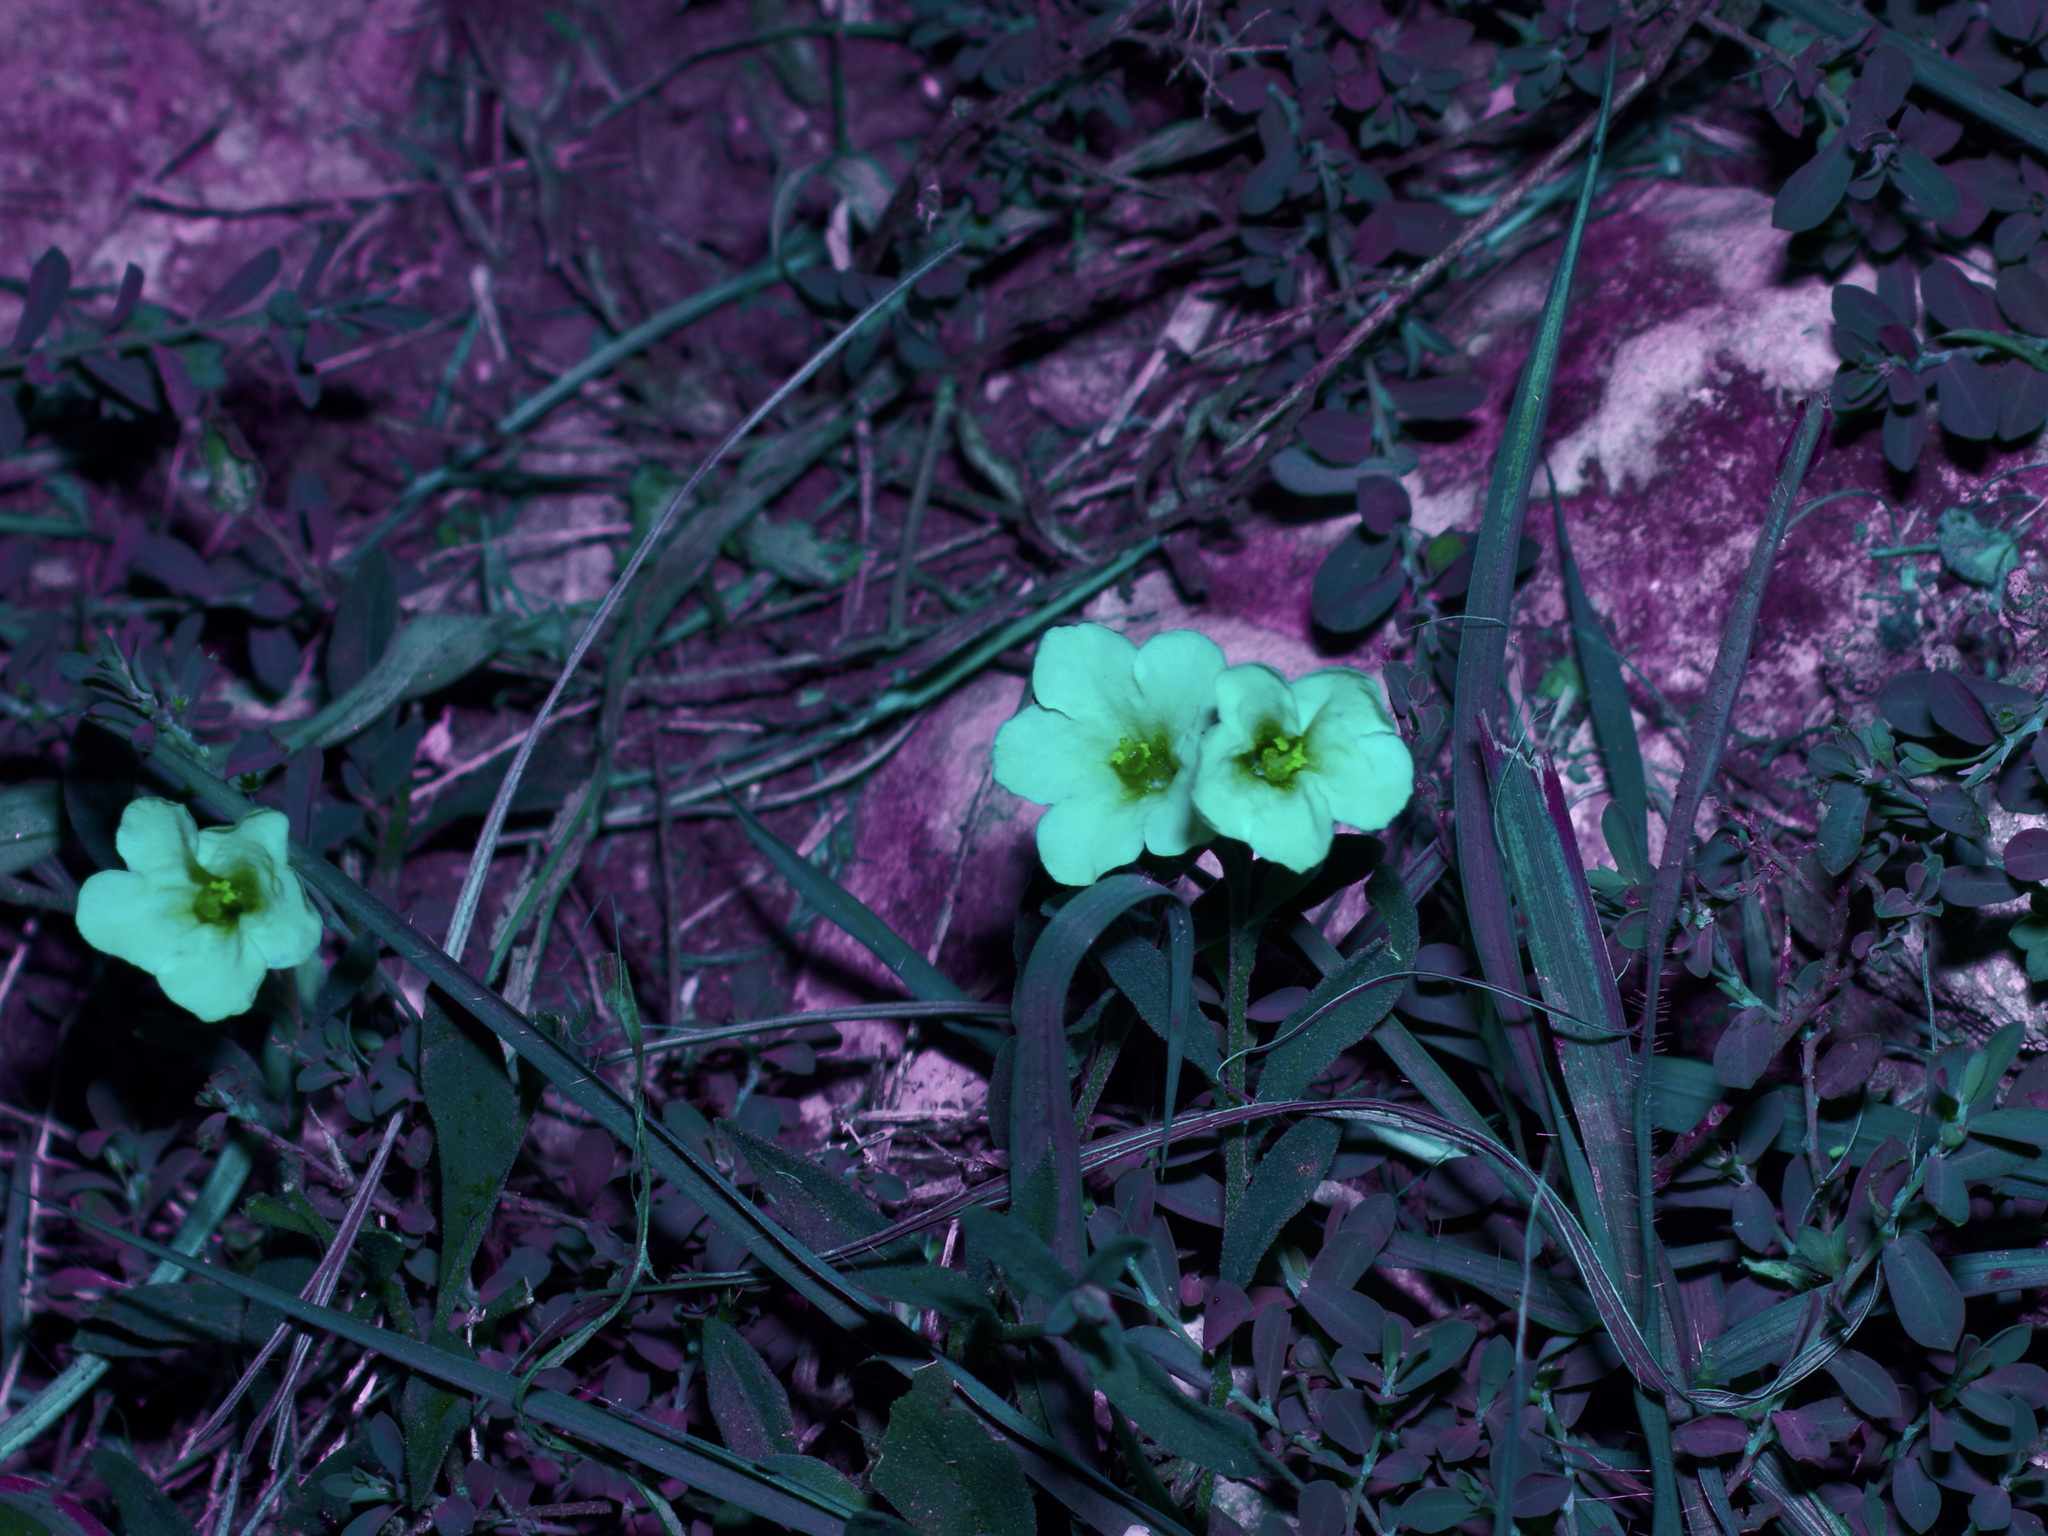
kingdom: Plantae
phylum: Tracheophyta
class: Magnoliopsida
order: Solanales
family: Solanaceae
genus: Salpiglossis
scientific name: Salpiglossis erecta
